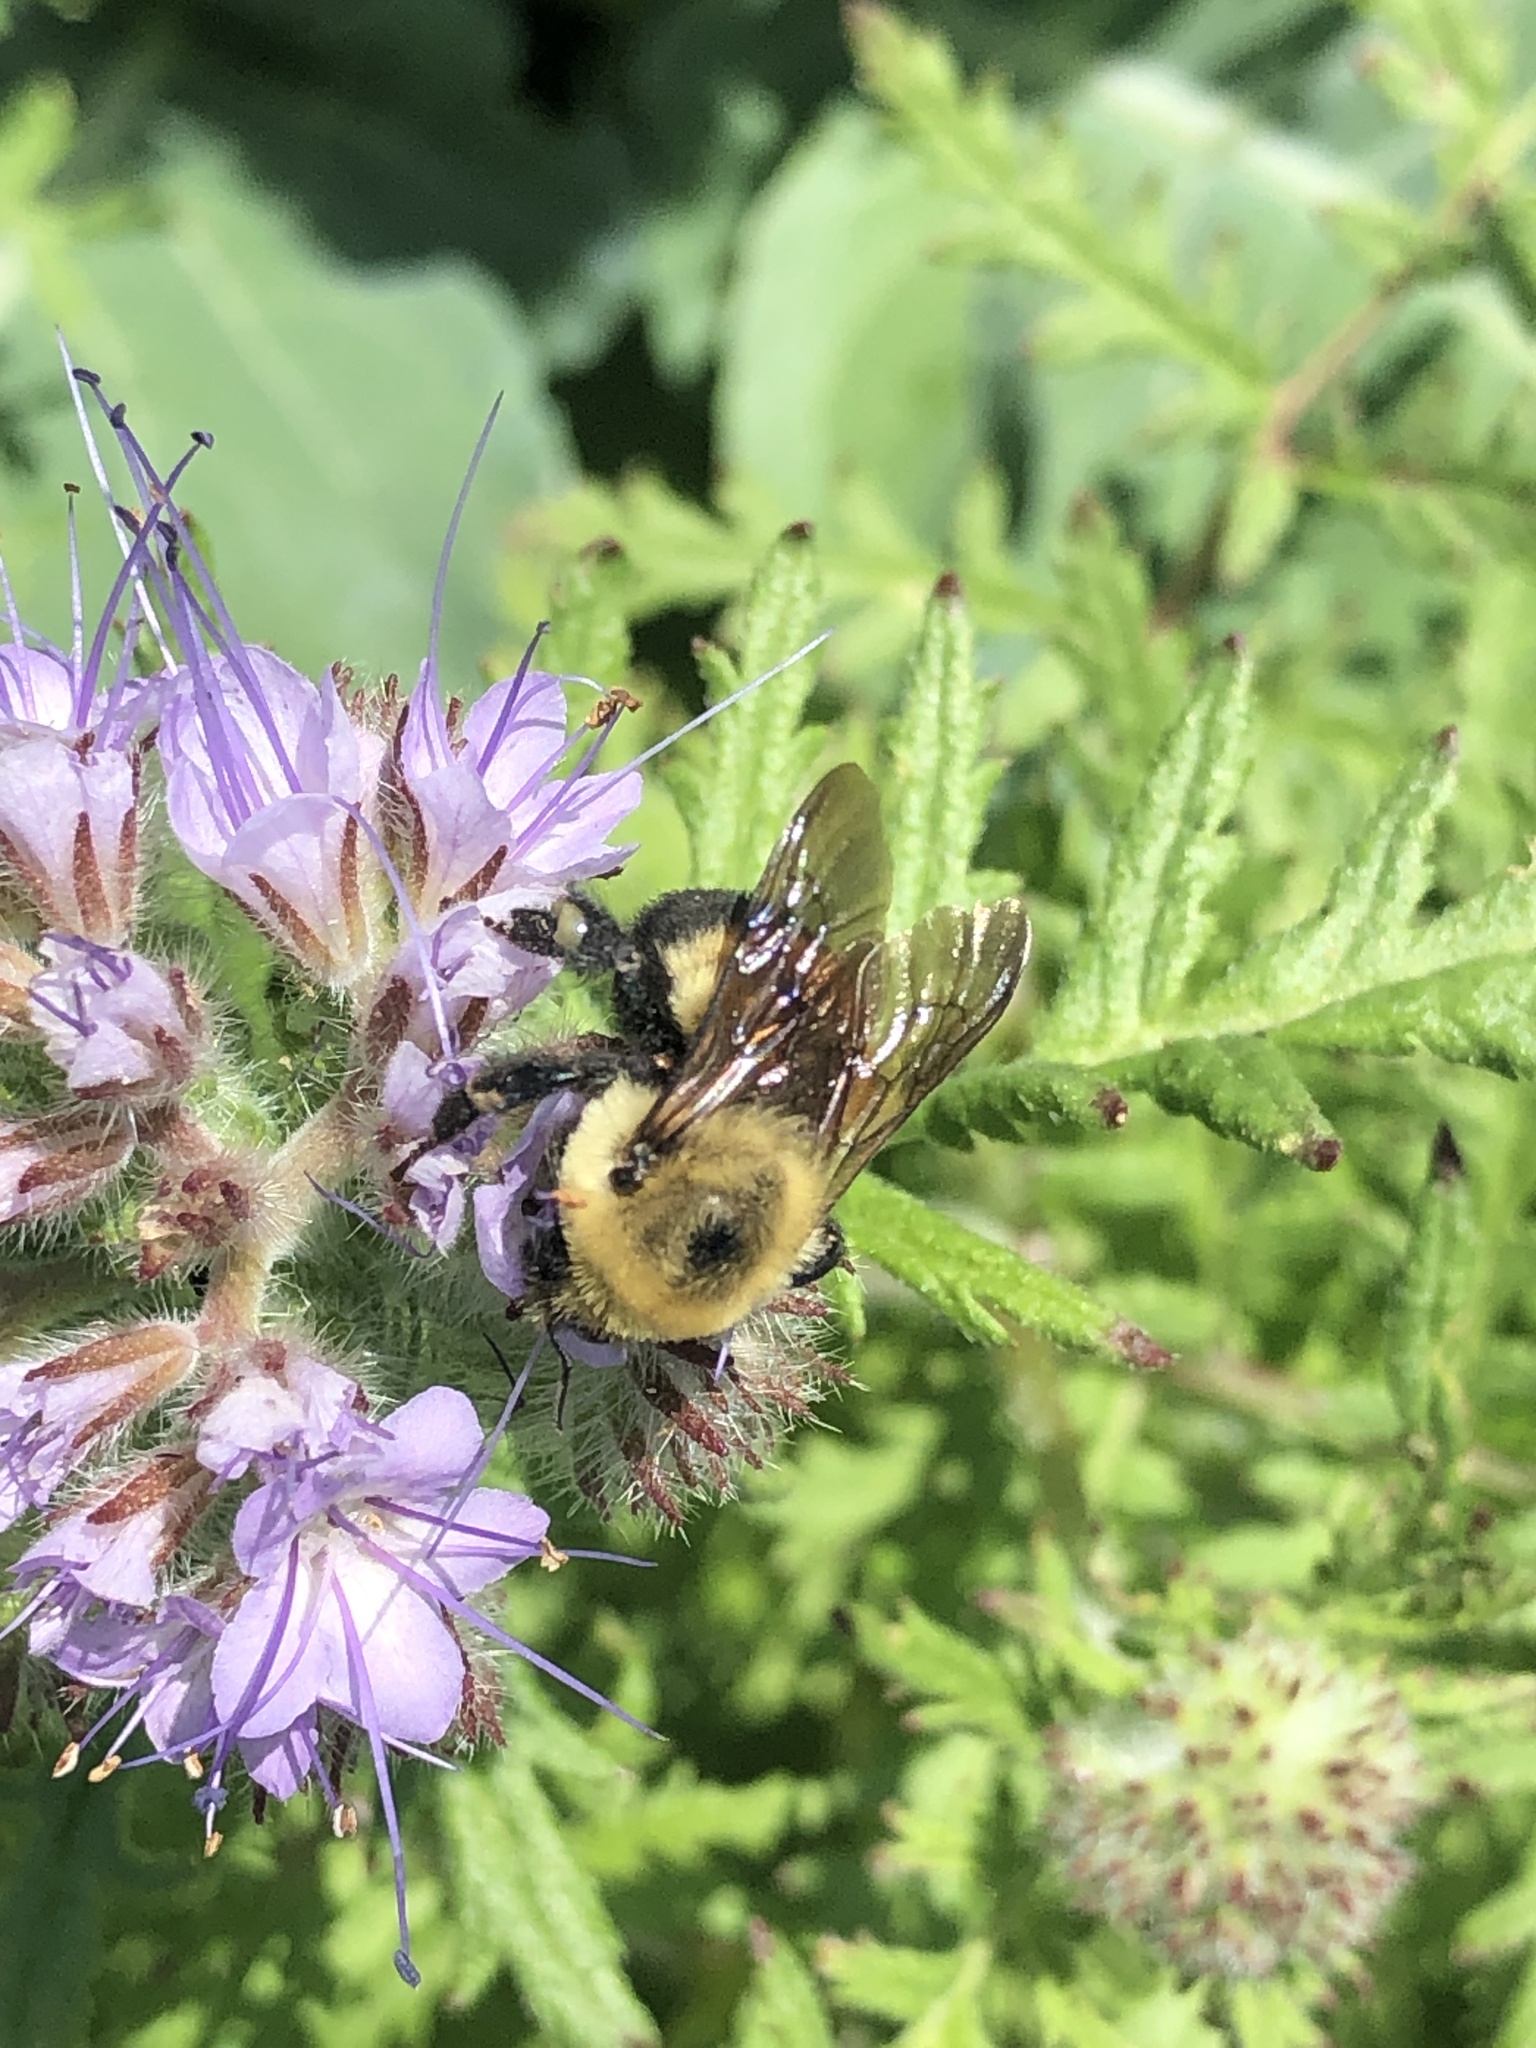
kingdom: Animalia
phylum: Arthropoda
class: Insecta
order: Hymenoptera
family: Apidae
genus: Bombus
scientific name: Bombus griseocollis
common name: Brown-belted bumble bee
